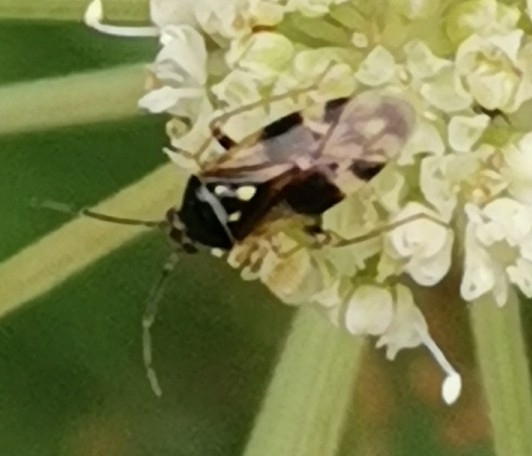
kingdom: Animalia
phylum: Arthropoda
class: Insecta
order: Hemiptera
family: Miridae
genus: Orthops
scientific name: Orthops basalis
